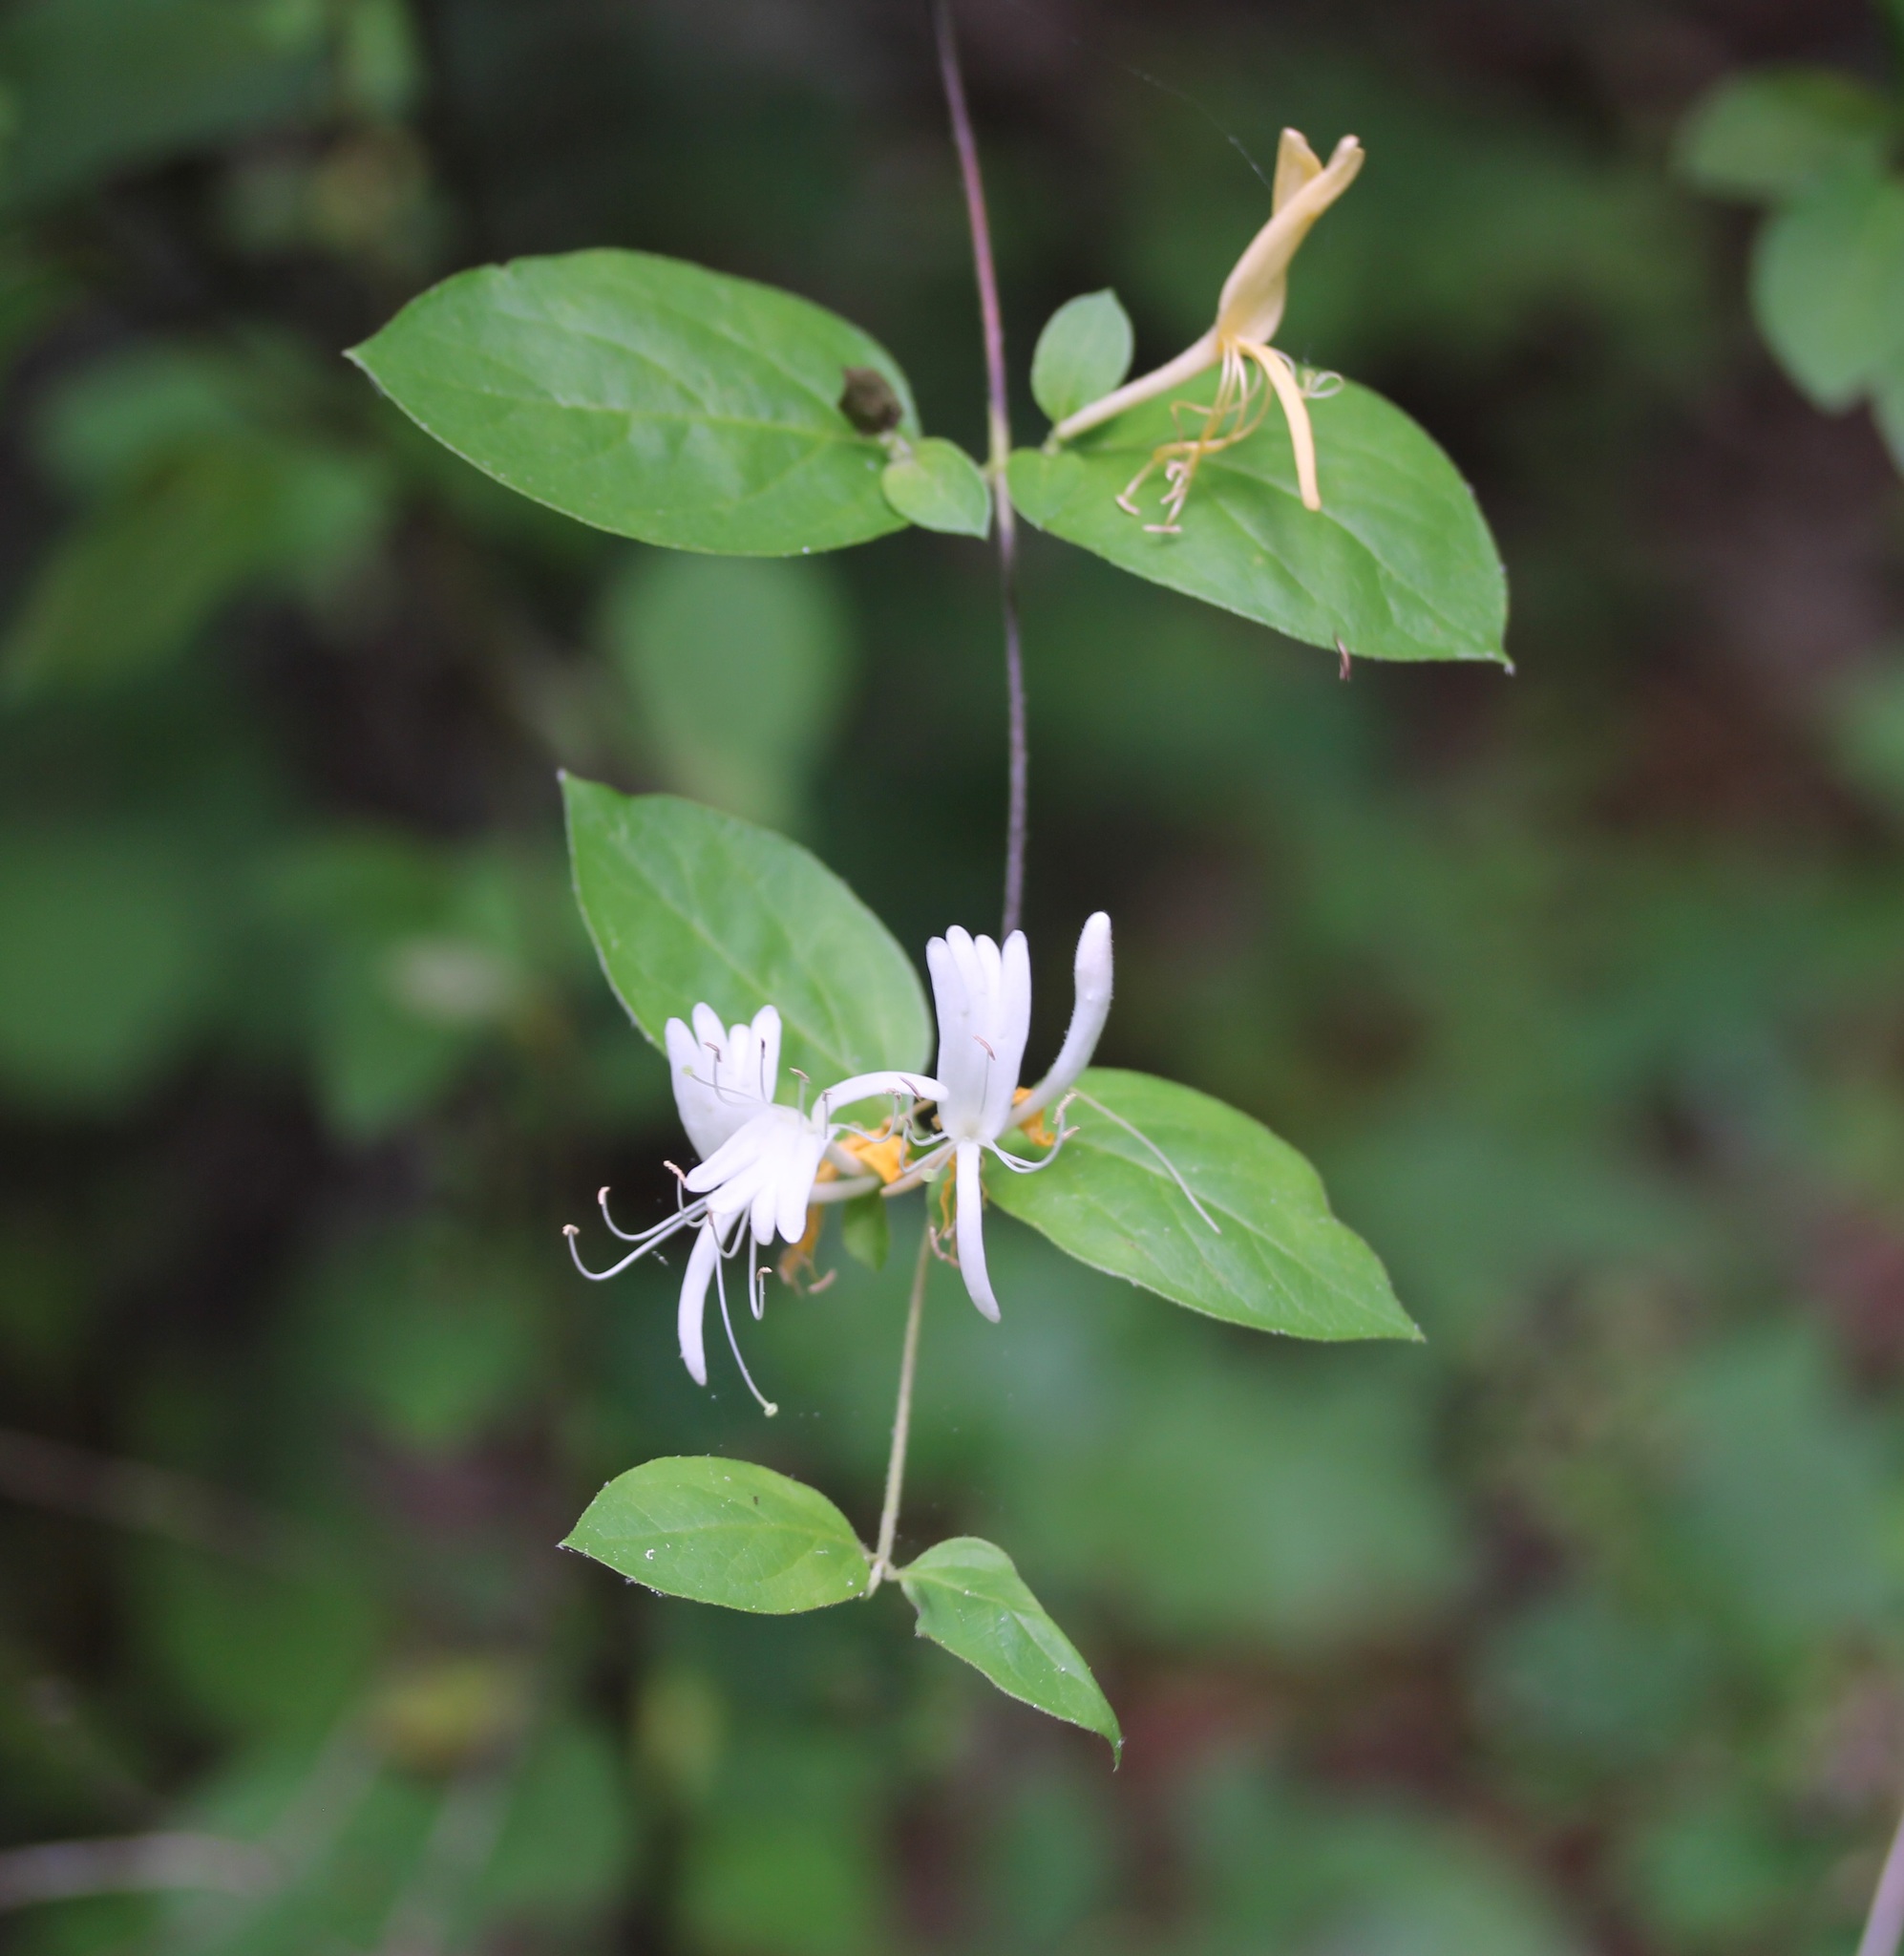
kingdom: Plantae
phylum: Tracheophyta
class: Magnoliopsida
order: Dipsacales
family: Caprifoliaceae
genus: Lonicera
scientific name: Lonicera japonica
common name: Japanese honeysuckle
